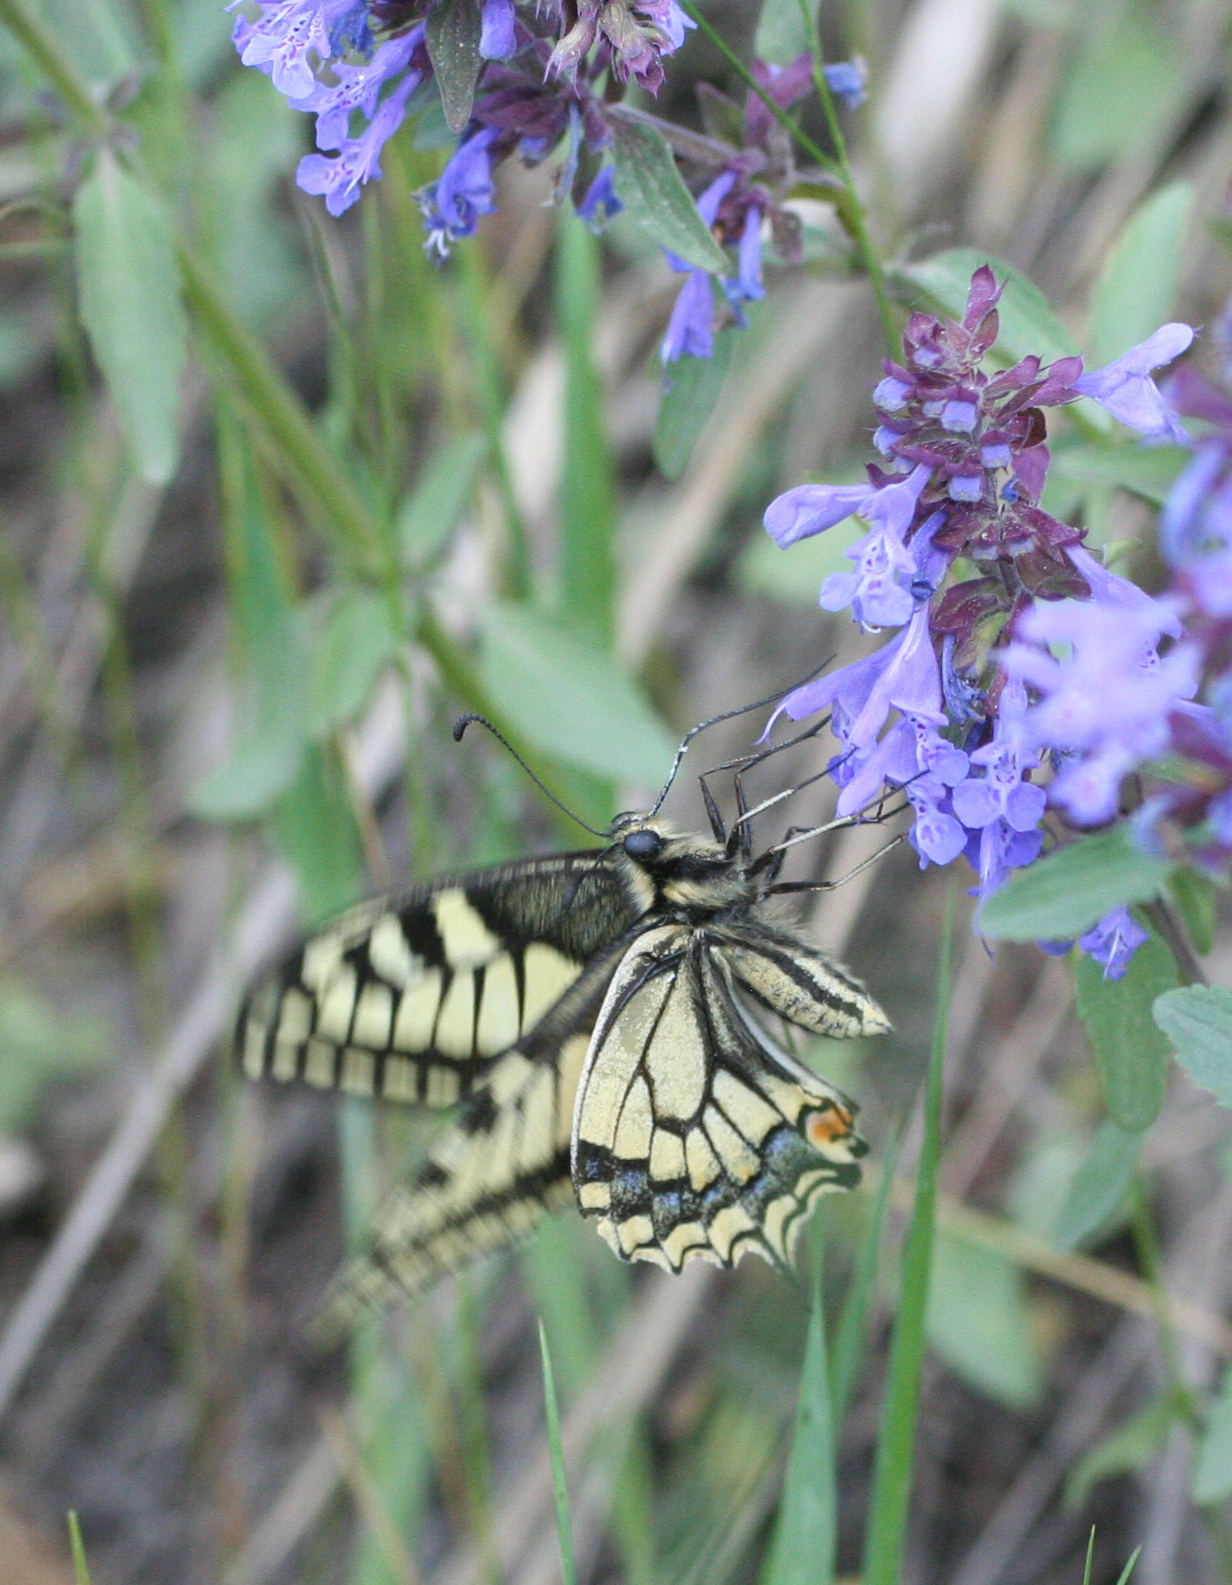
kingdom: Animalia
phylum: Arthropoda
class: Insecta
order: Lepidoptera
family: Papilionidae
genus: Papilio
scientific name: Papilio machaon
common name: Swallowtail
